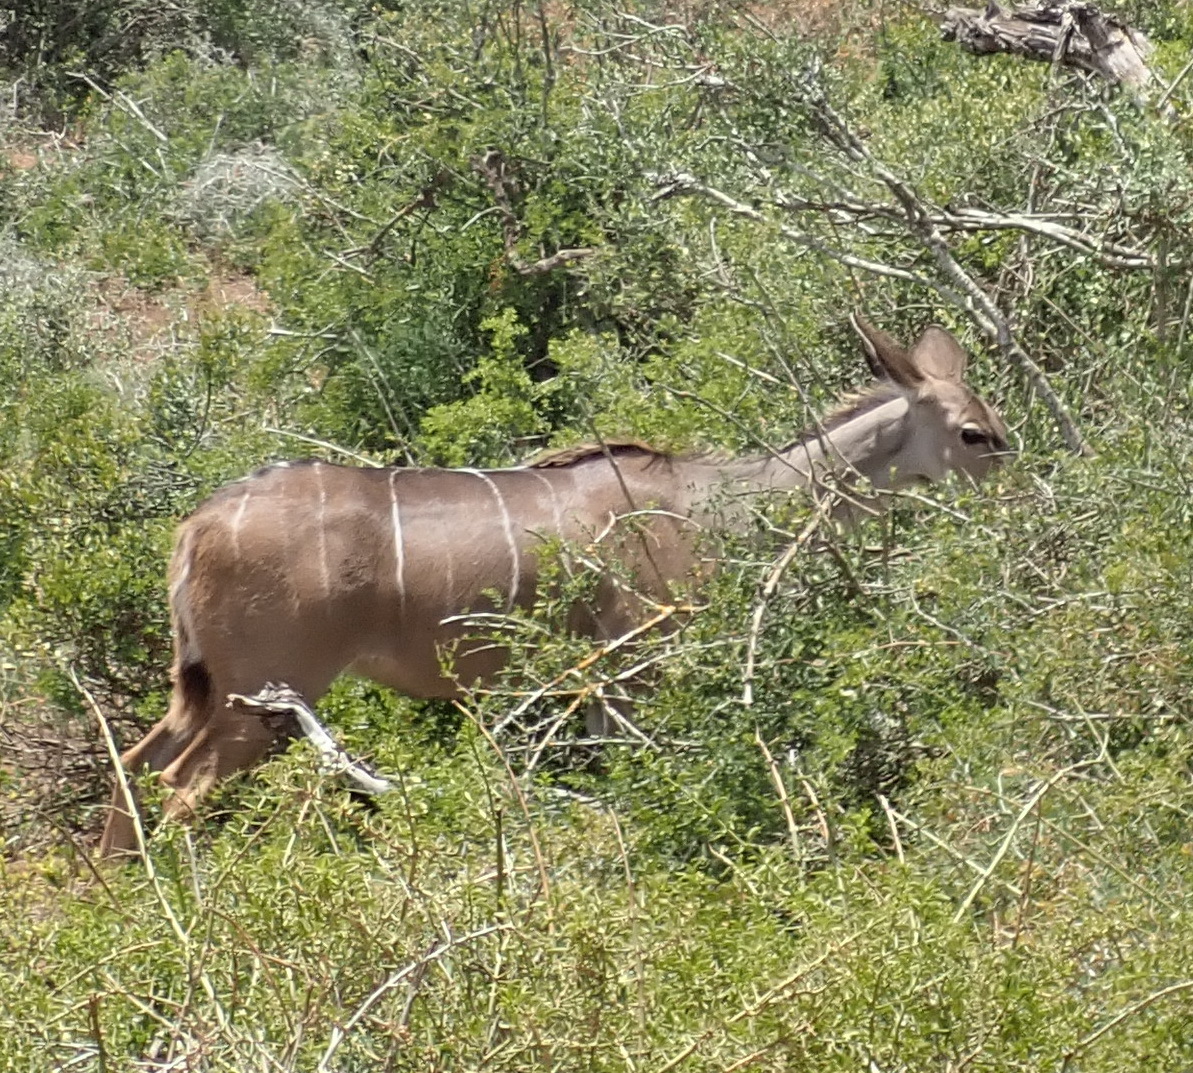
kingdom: Animalia
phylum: Chordata
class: Mammalia
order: Artiodactyla
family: Bovidae
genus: Tragelaphus
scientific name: Tragelaphus strepsiceros
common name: Greater kudu
